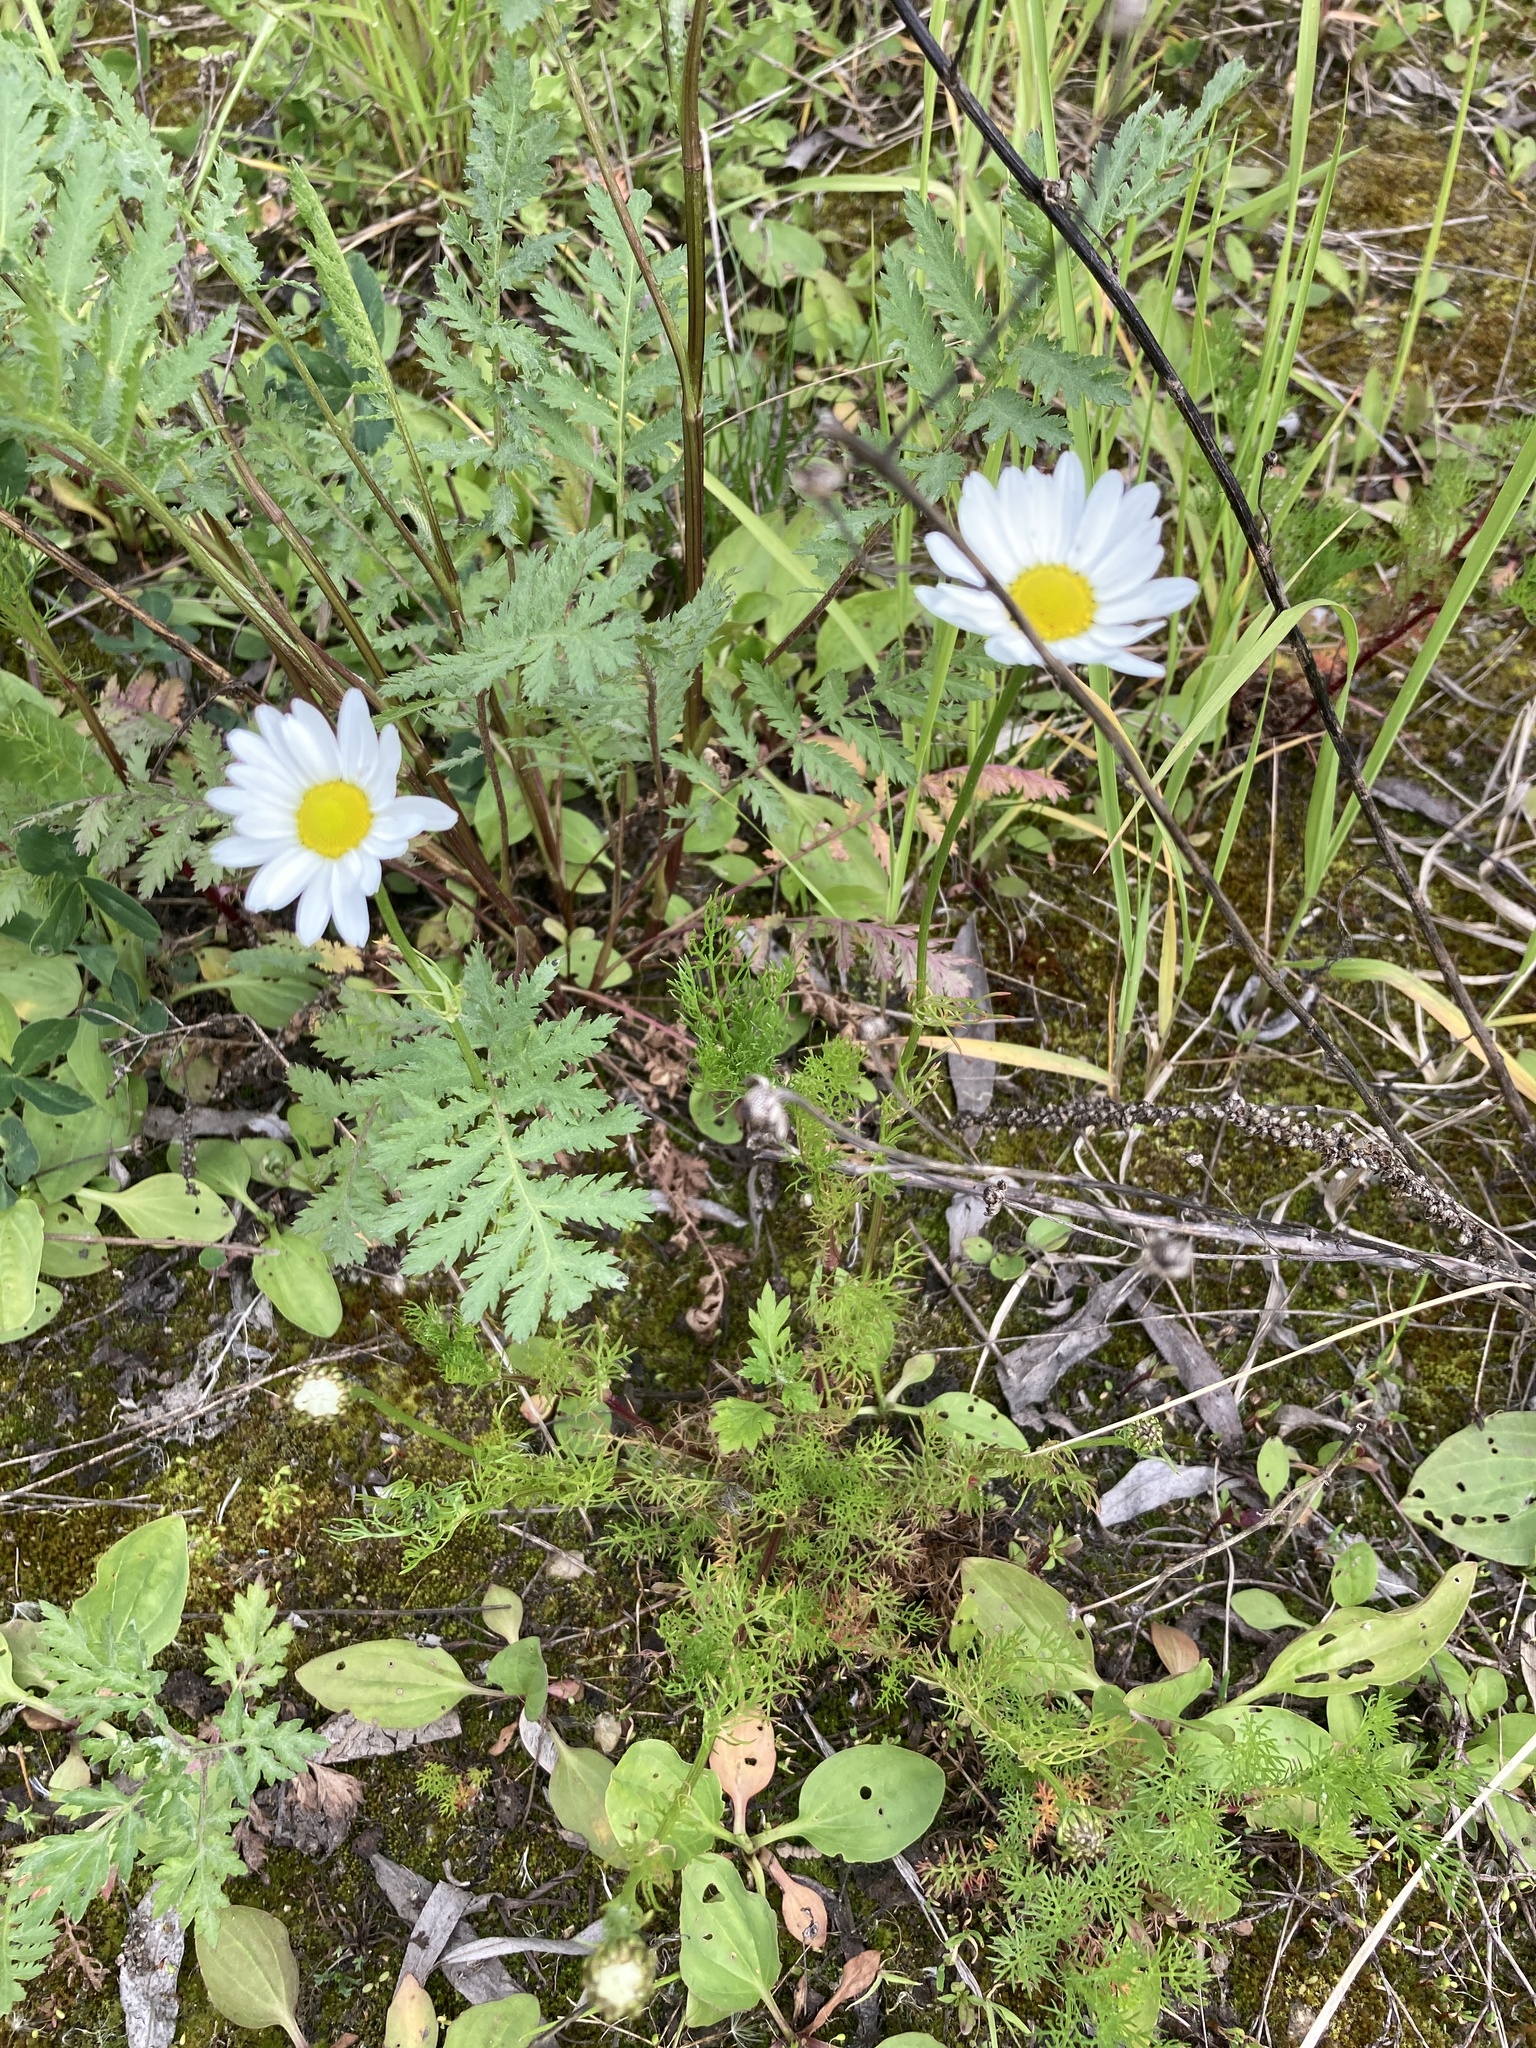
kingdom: Plantae
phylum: Tracheophyta
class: Magnoliopsida
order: Asterales
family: Asteraceae
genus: Leucanthemum
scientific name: Leucanthemum vulgare
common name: Oxeye daisy
